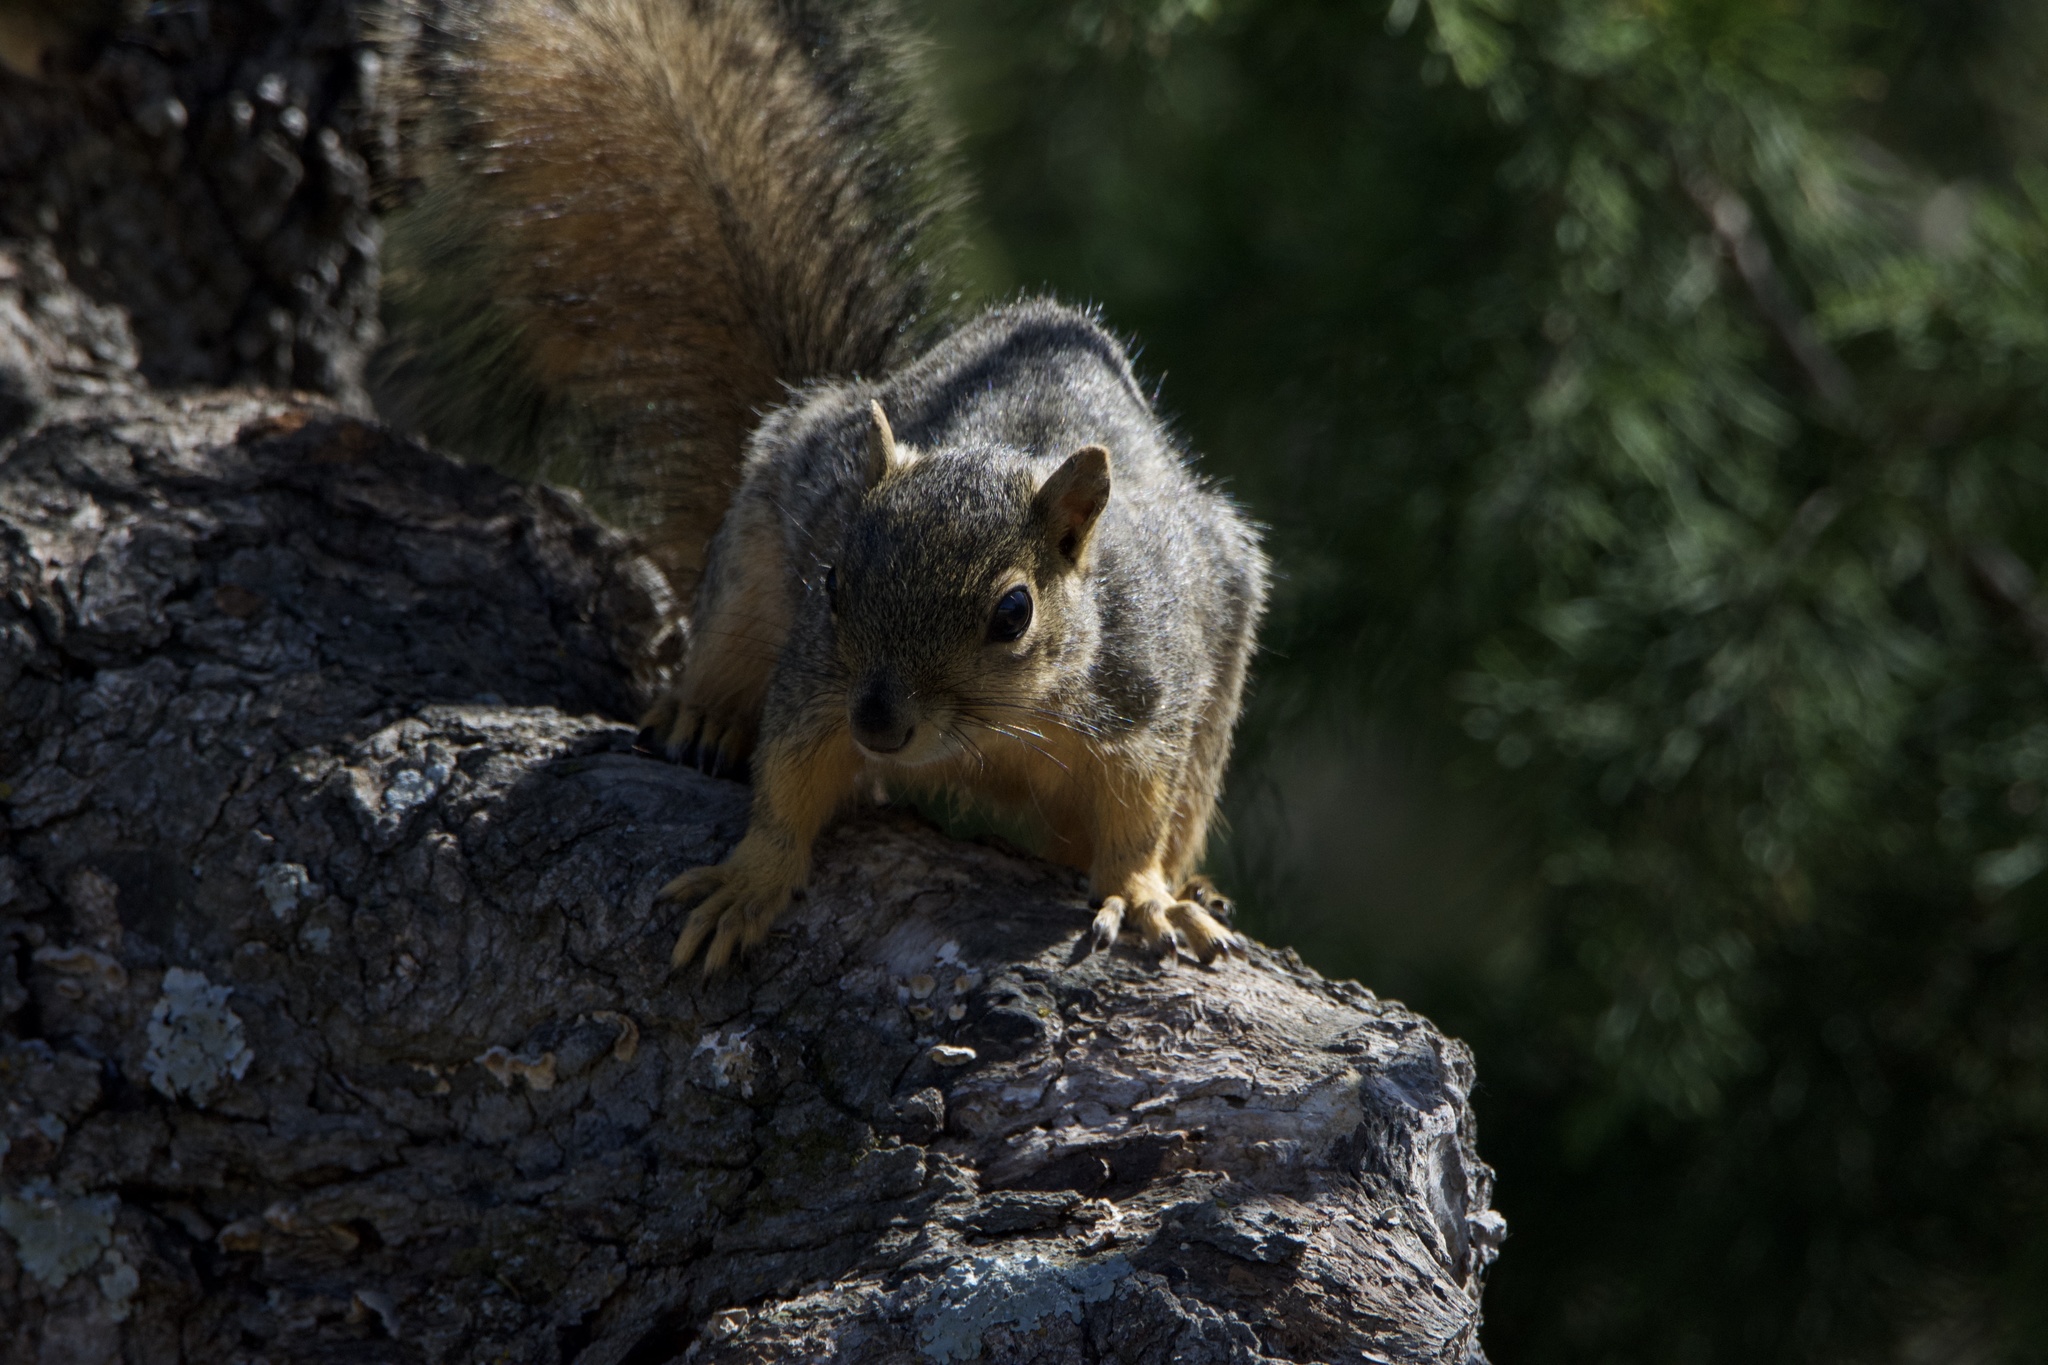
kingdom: Animalia
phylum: Chordata
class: Mammalia
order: Rodentia
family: Sciuridae
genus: Sciurus
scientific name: Sciurus niger
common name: Fox squirrel
